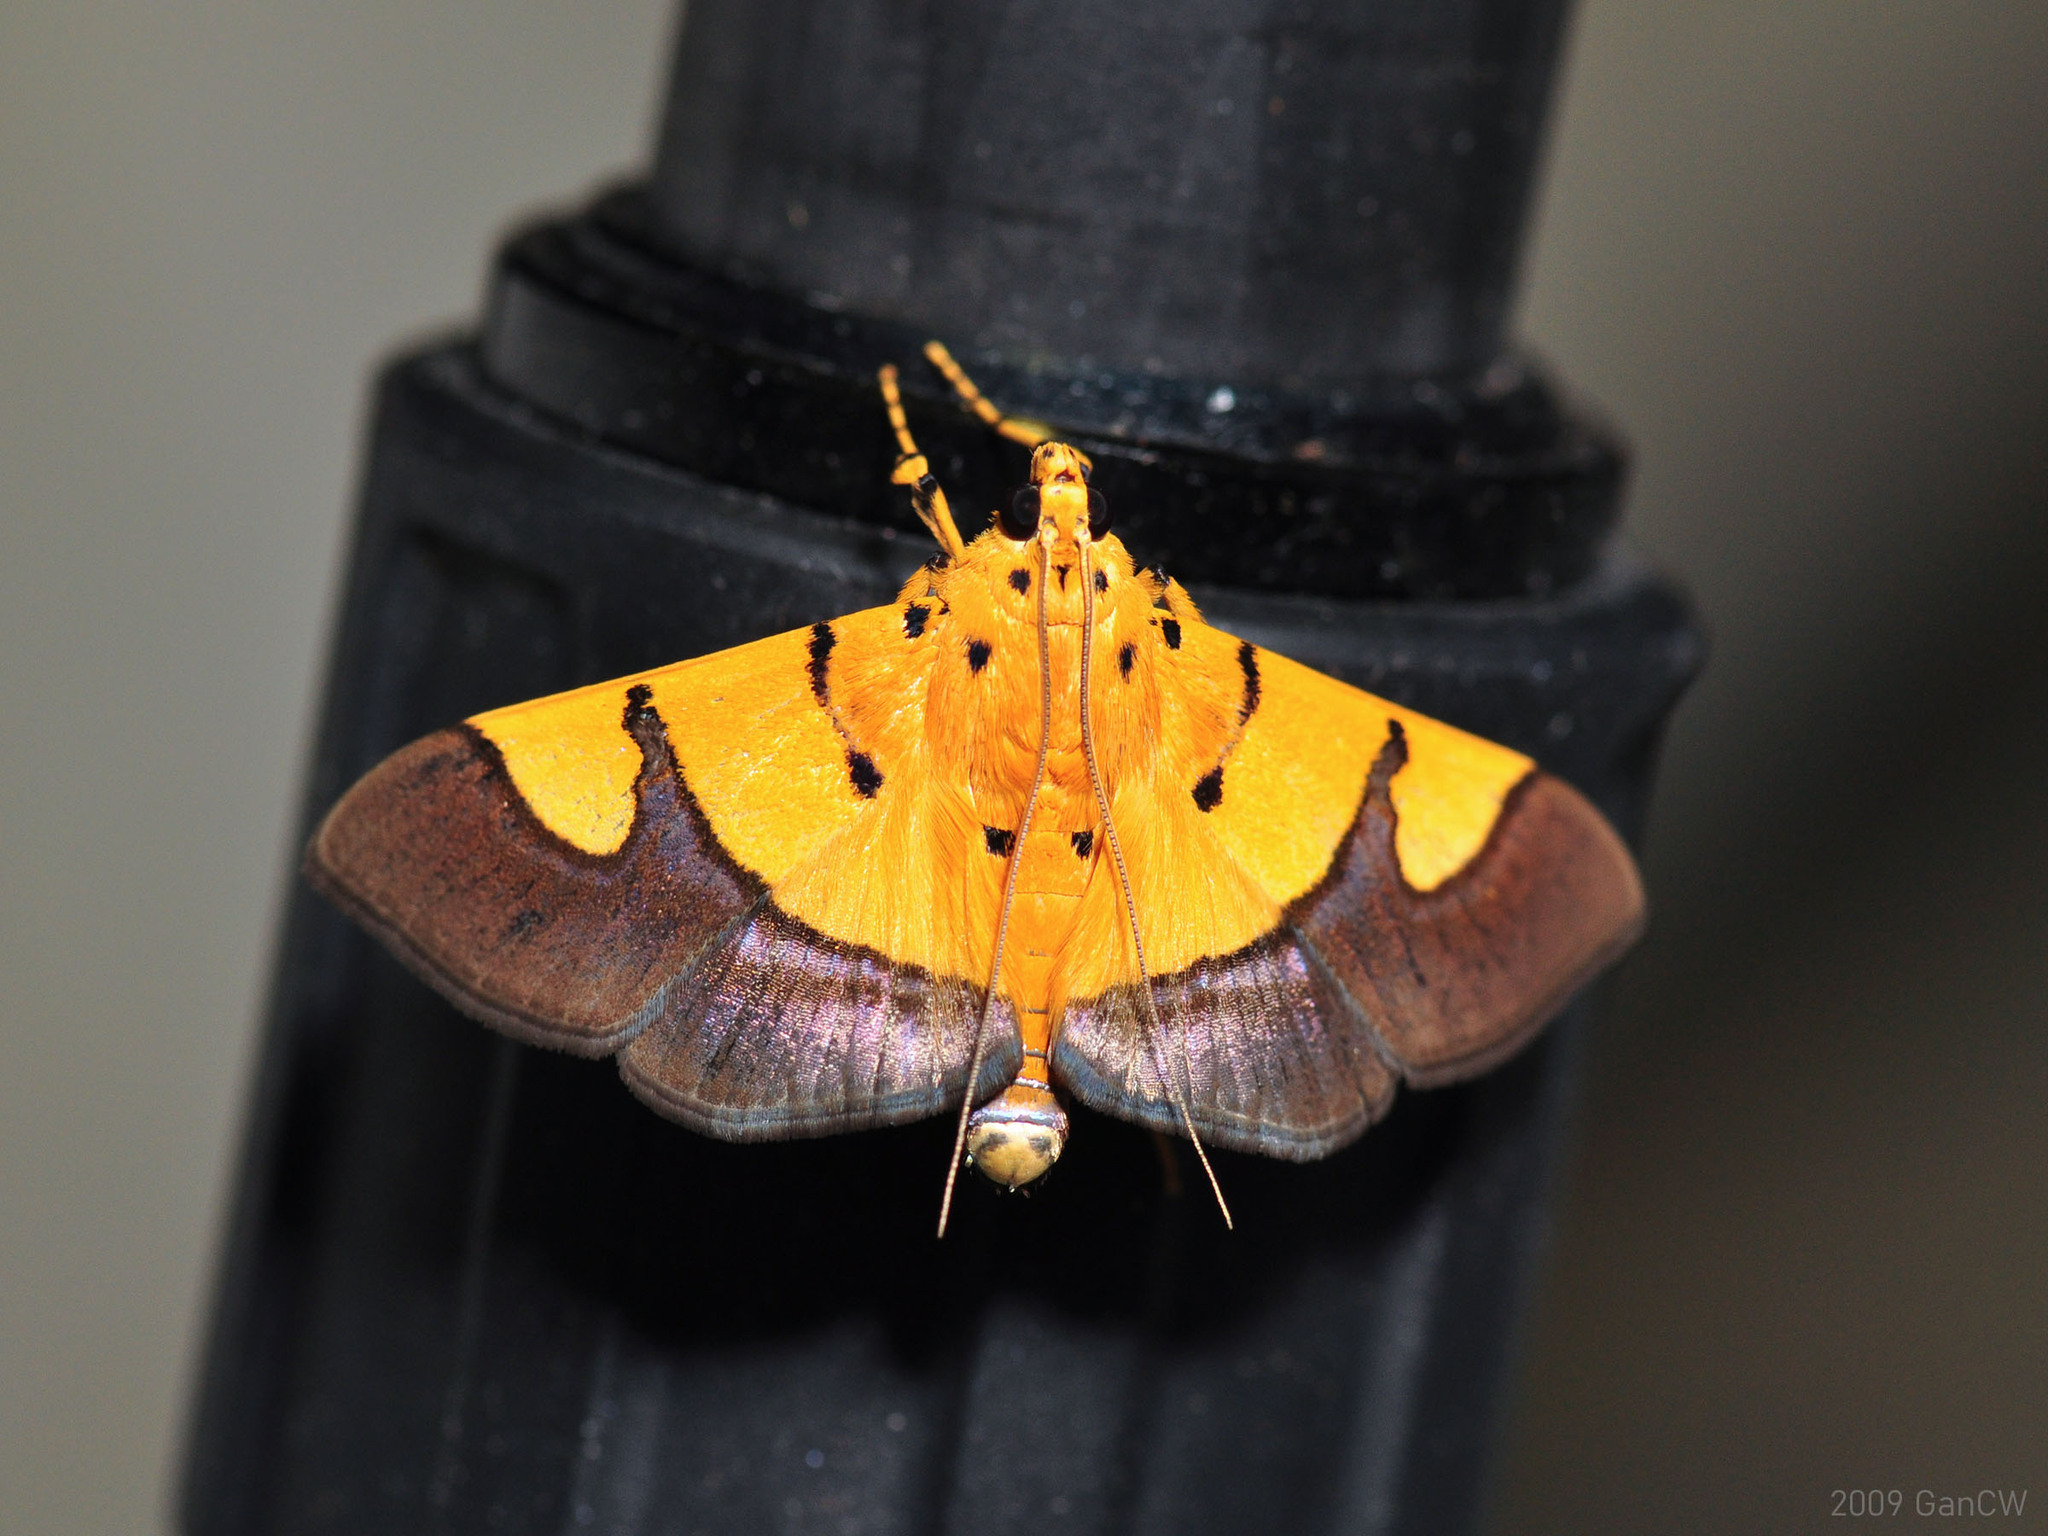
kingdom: Animalia
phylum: Arthropoda
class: Insecta
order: Lepidoptera
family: Crambidae
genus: Botyodes
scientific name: Botyodes
